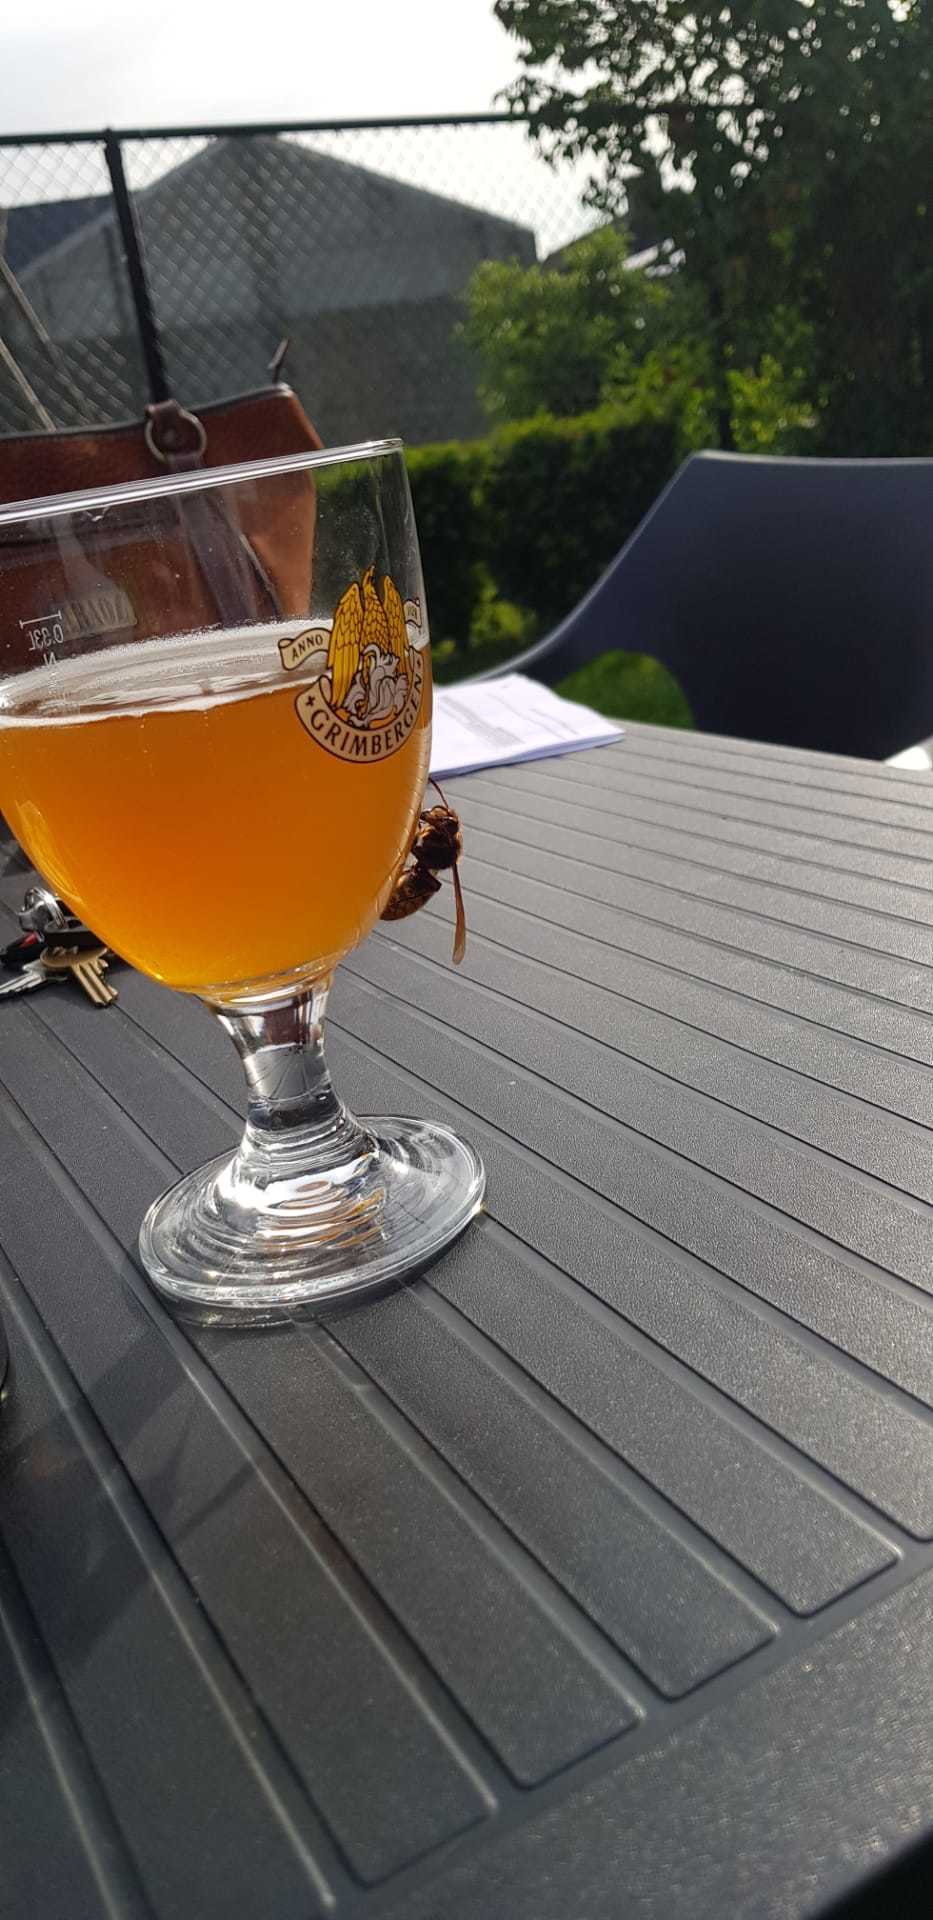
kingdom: Animalia
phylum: Arthropoda
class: Insecta
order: Hymenoptera
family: Vespidae
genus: Vespa
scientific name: Vespa crabro
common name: Hornet
